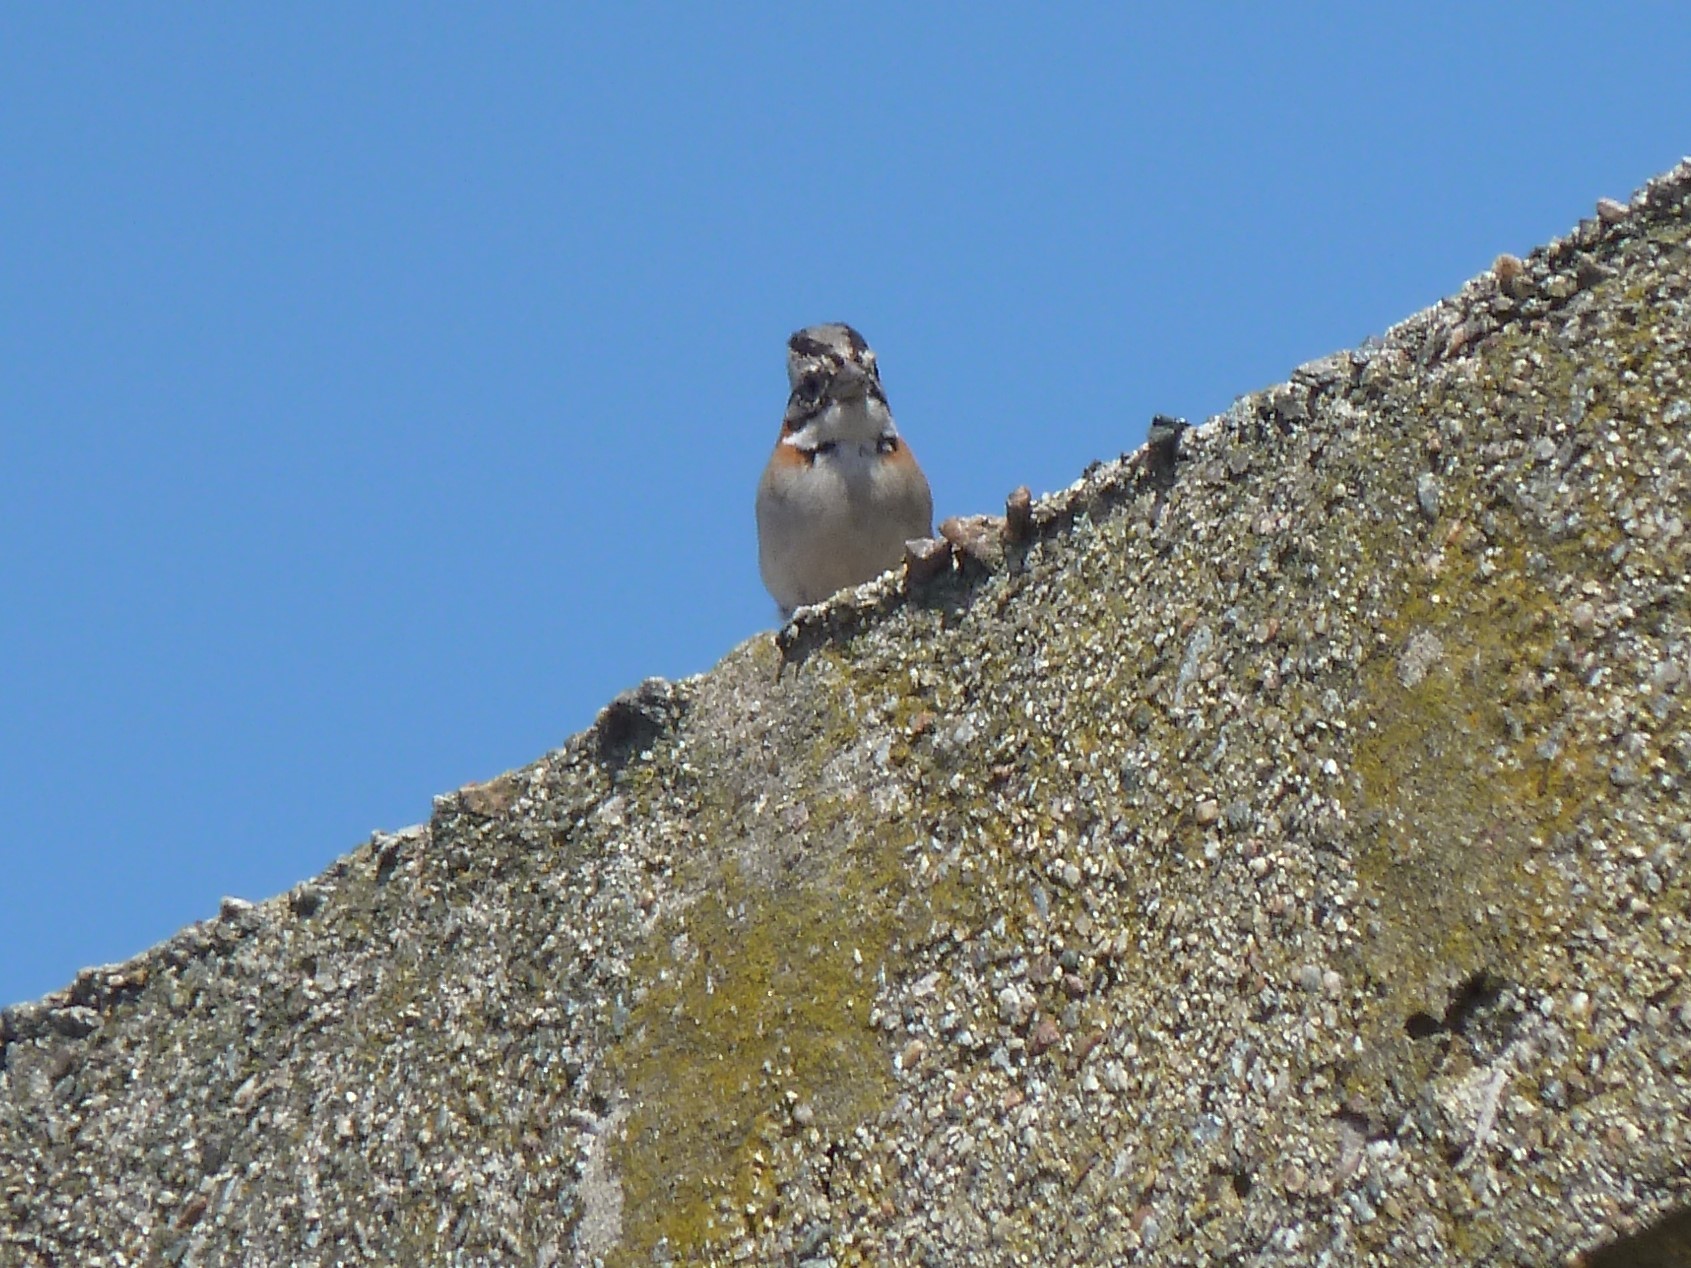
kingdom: Animalia
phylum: Chordata
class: Aves
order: Passeriformes
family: Passerellidae
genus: Zonotrichia
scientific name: Zonotrichia capensis
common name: Rufous-collared sparrow
